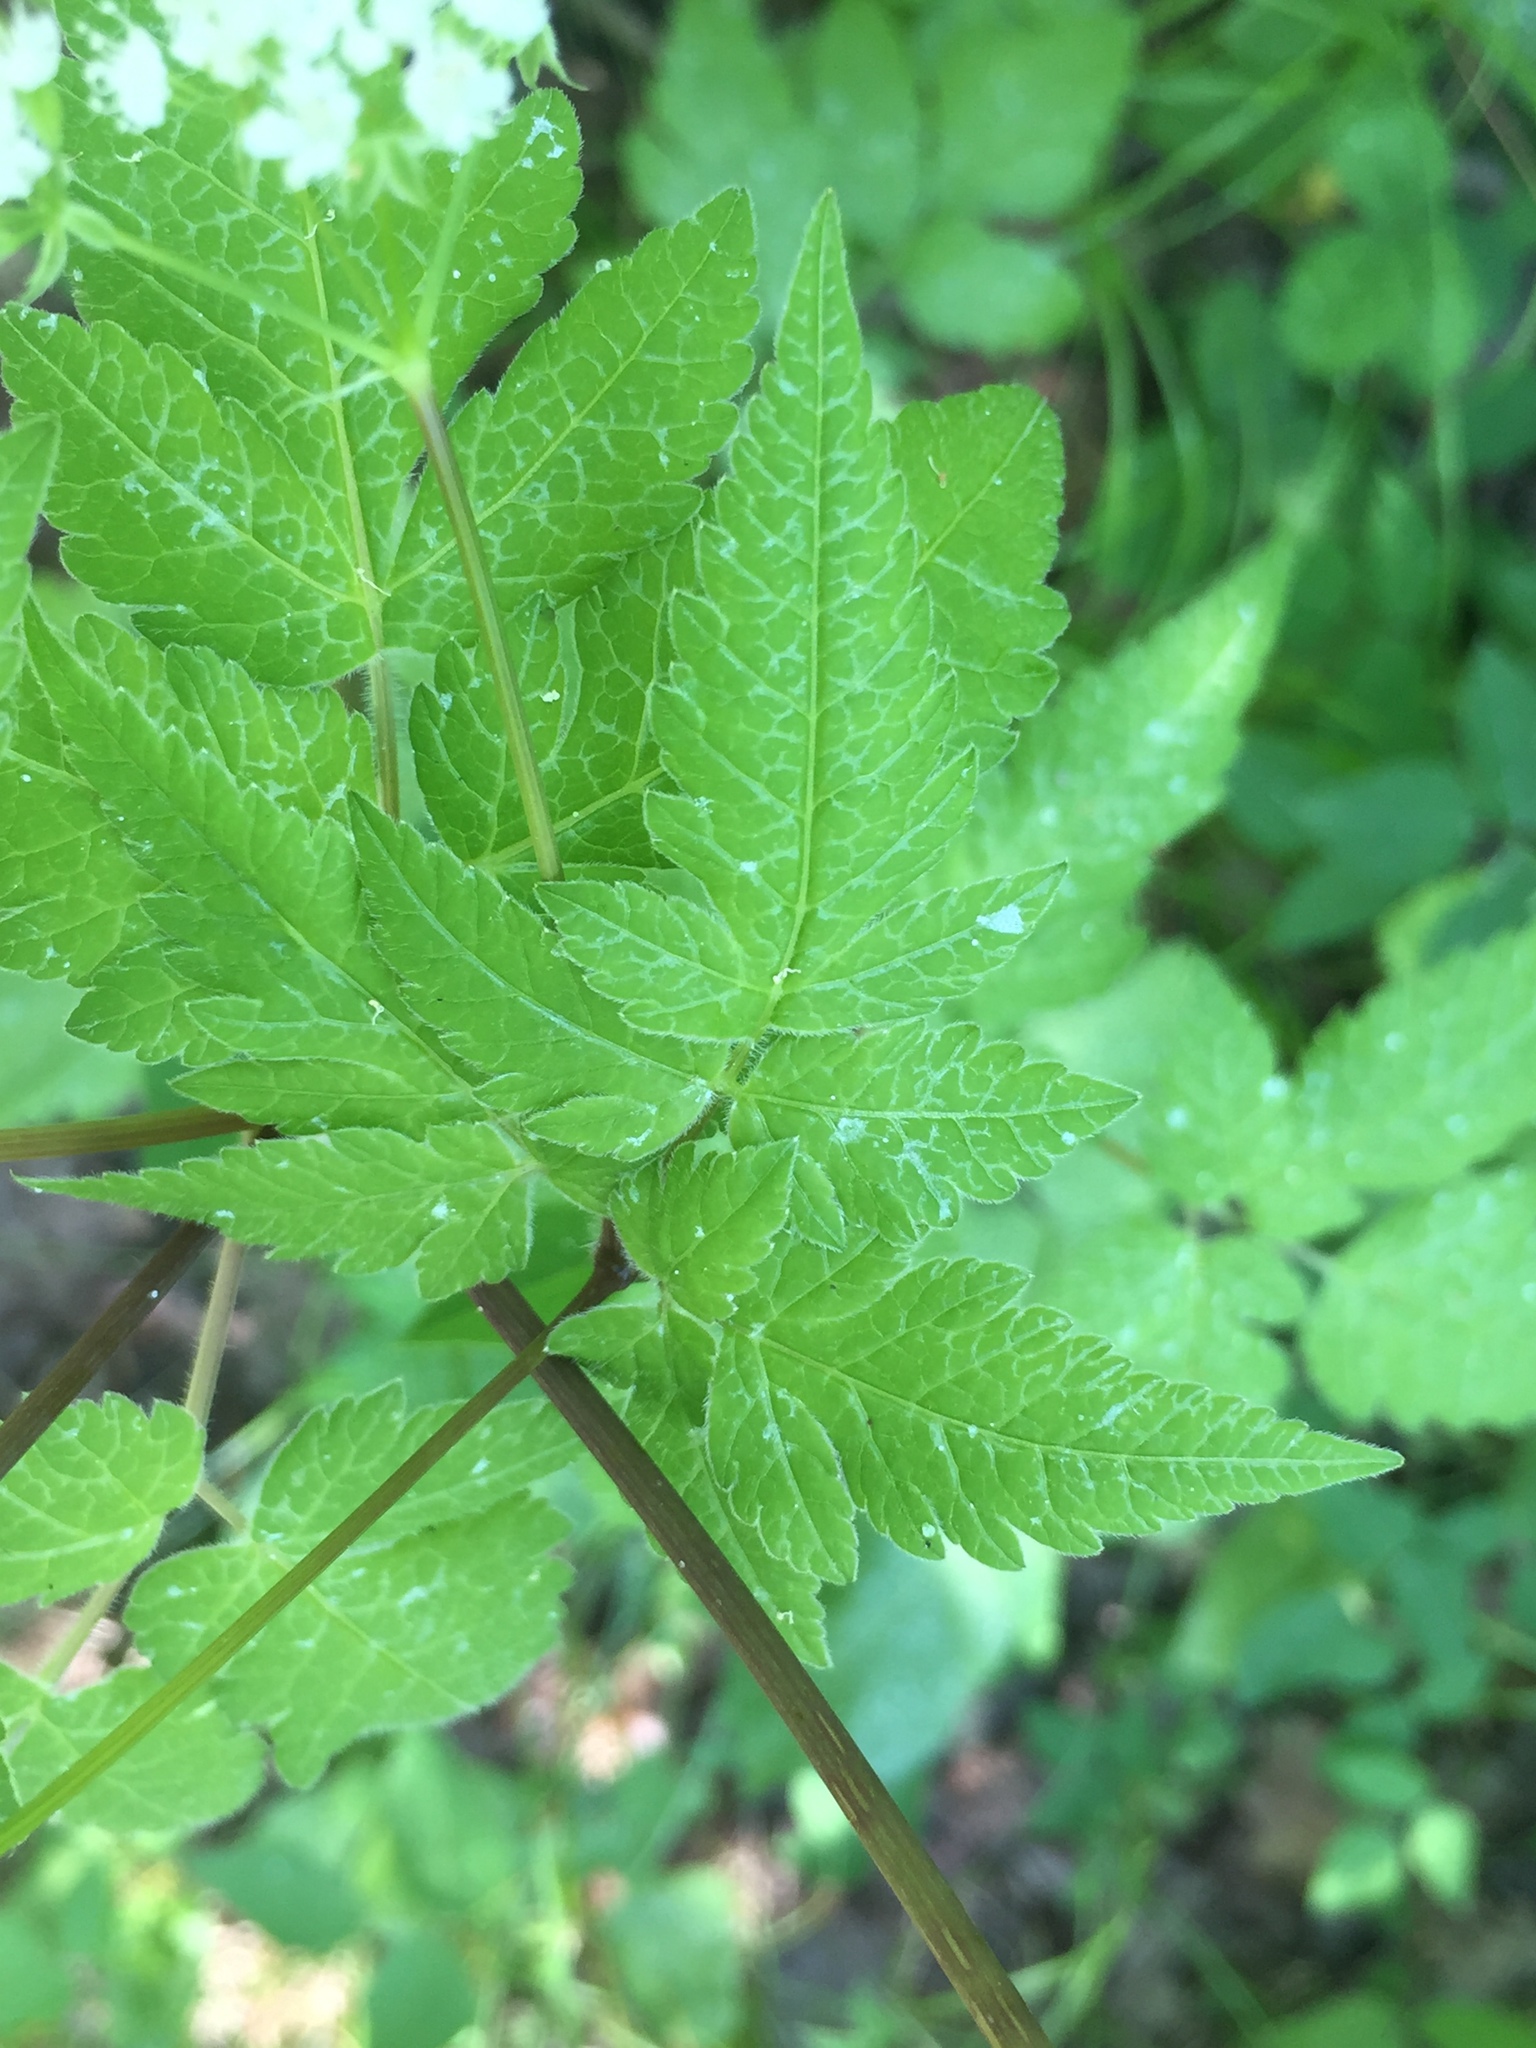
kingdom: Plantae
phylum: Tracheophyta
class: Magnoliopsida
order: Apiales
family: Apiaceae
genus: Osmorhiza
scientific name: Osmorhiza longistylis
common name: Smooth sweet cicely
